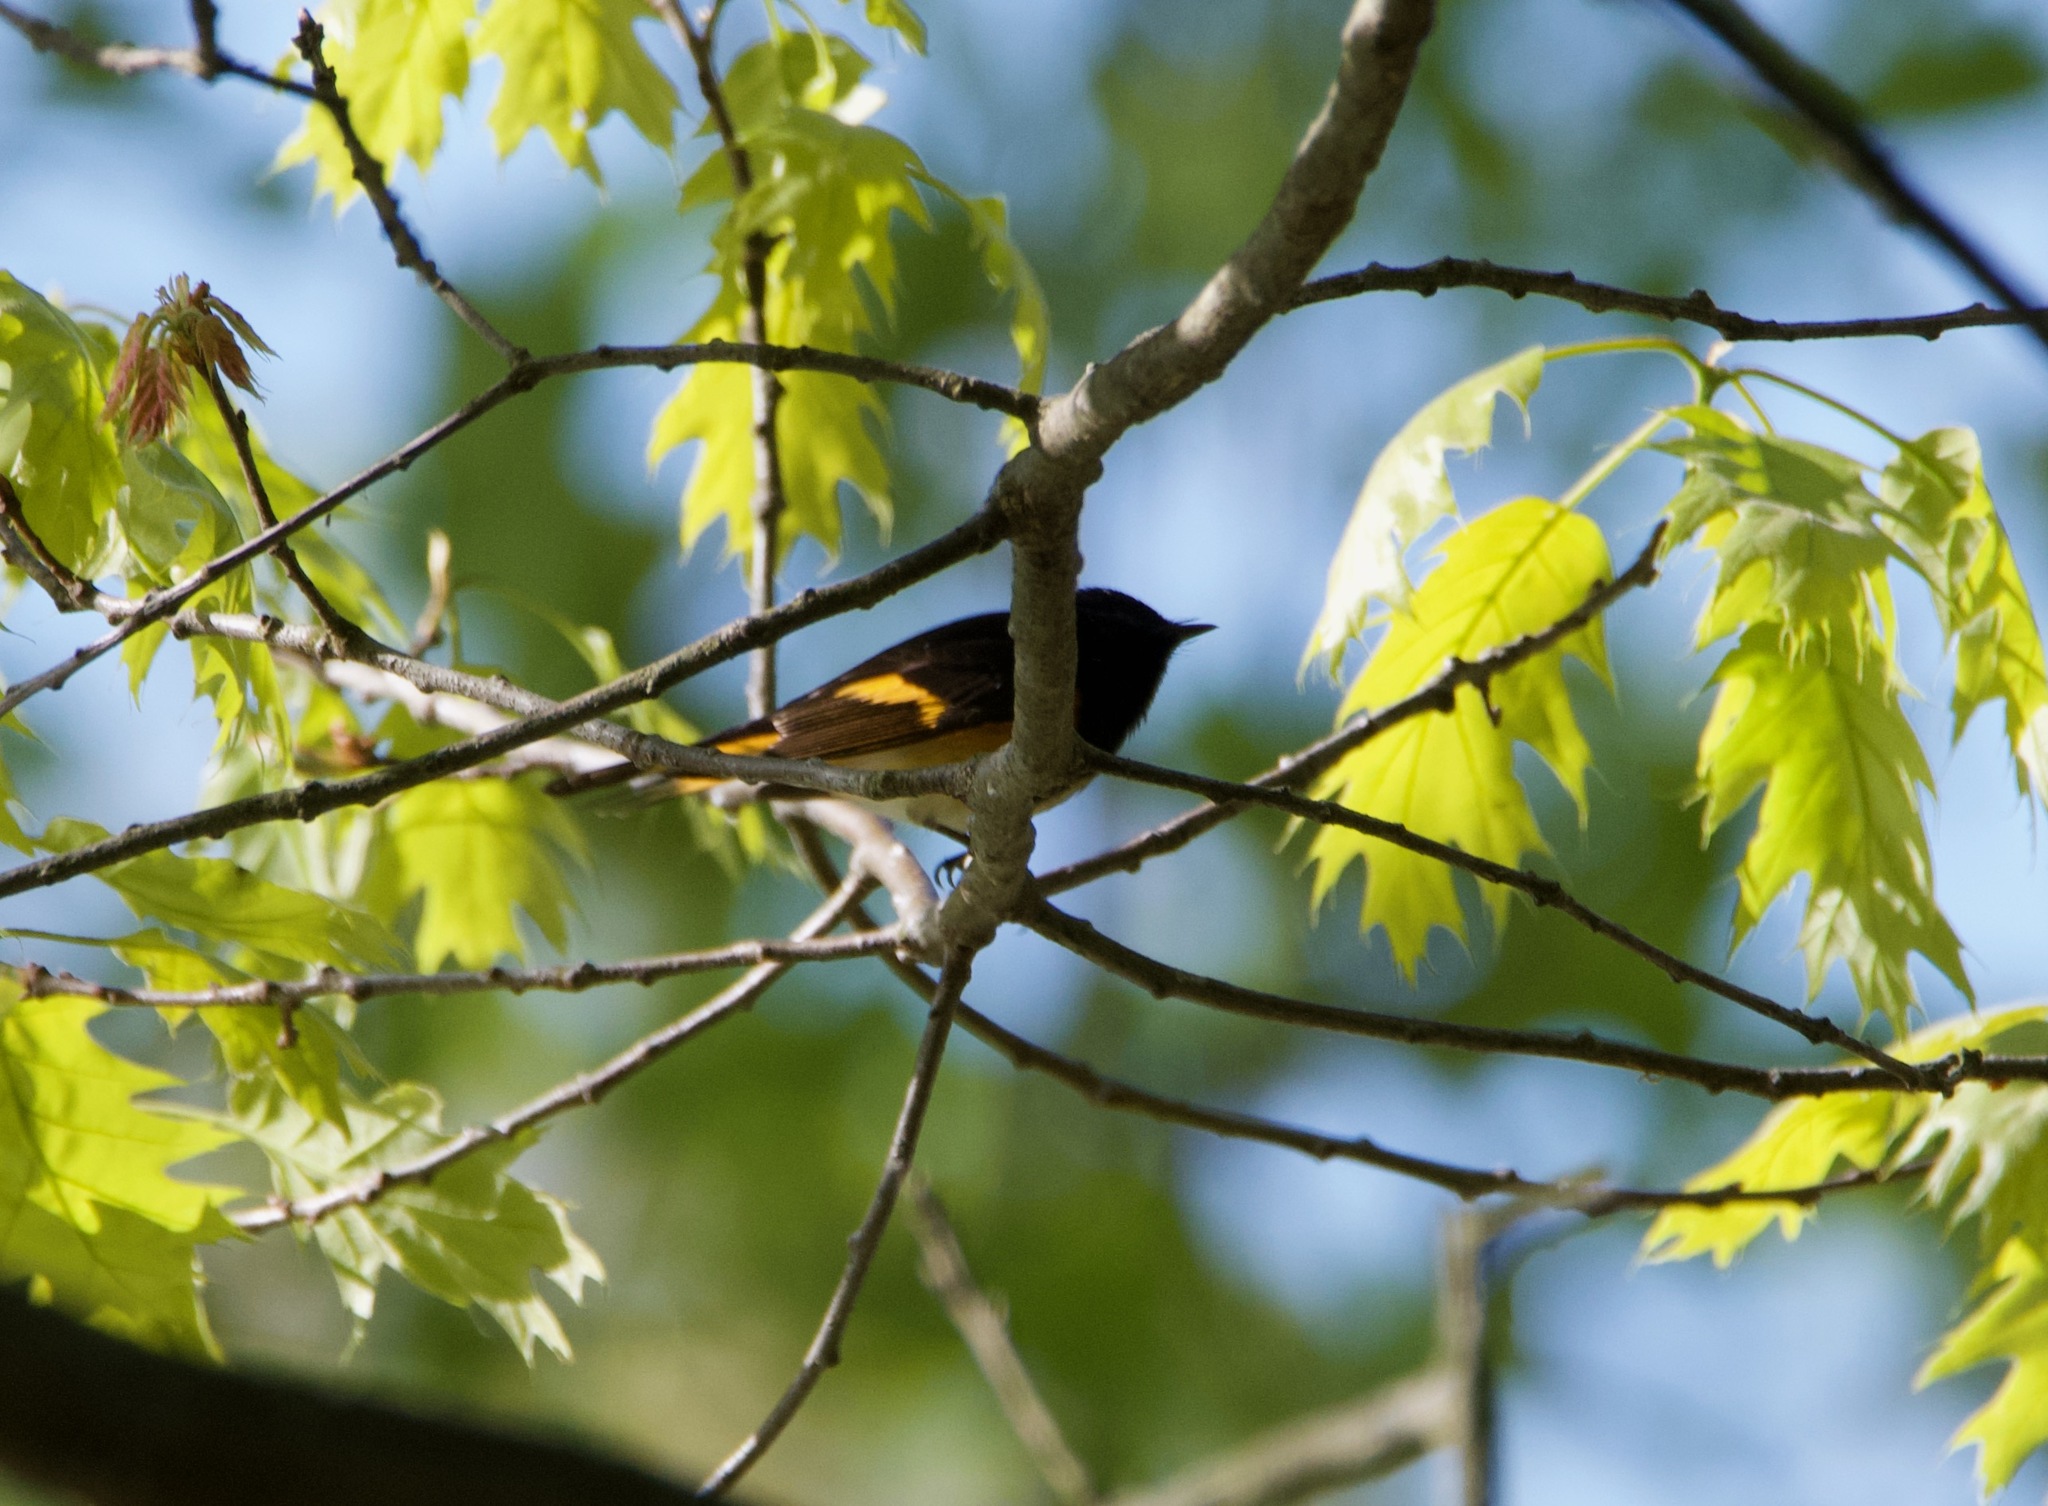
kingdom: Animalia
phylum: Chordata
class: Aves
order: Passeriformes
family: Parulidae
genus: Setophaga
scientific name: Setophaga ruticilla
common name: American redstart
